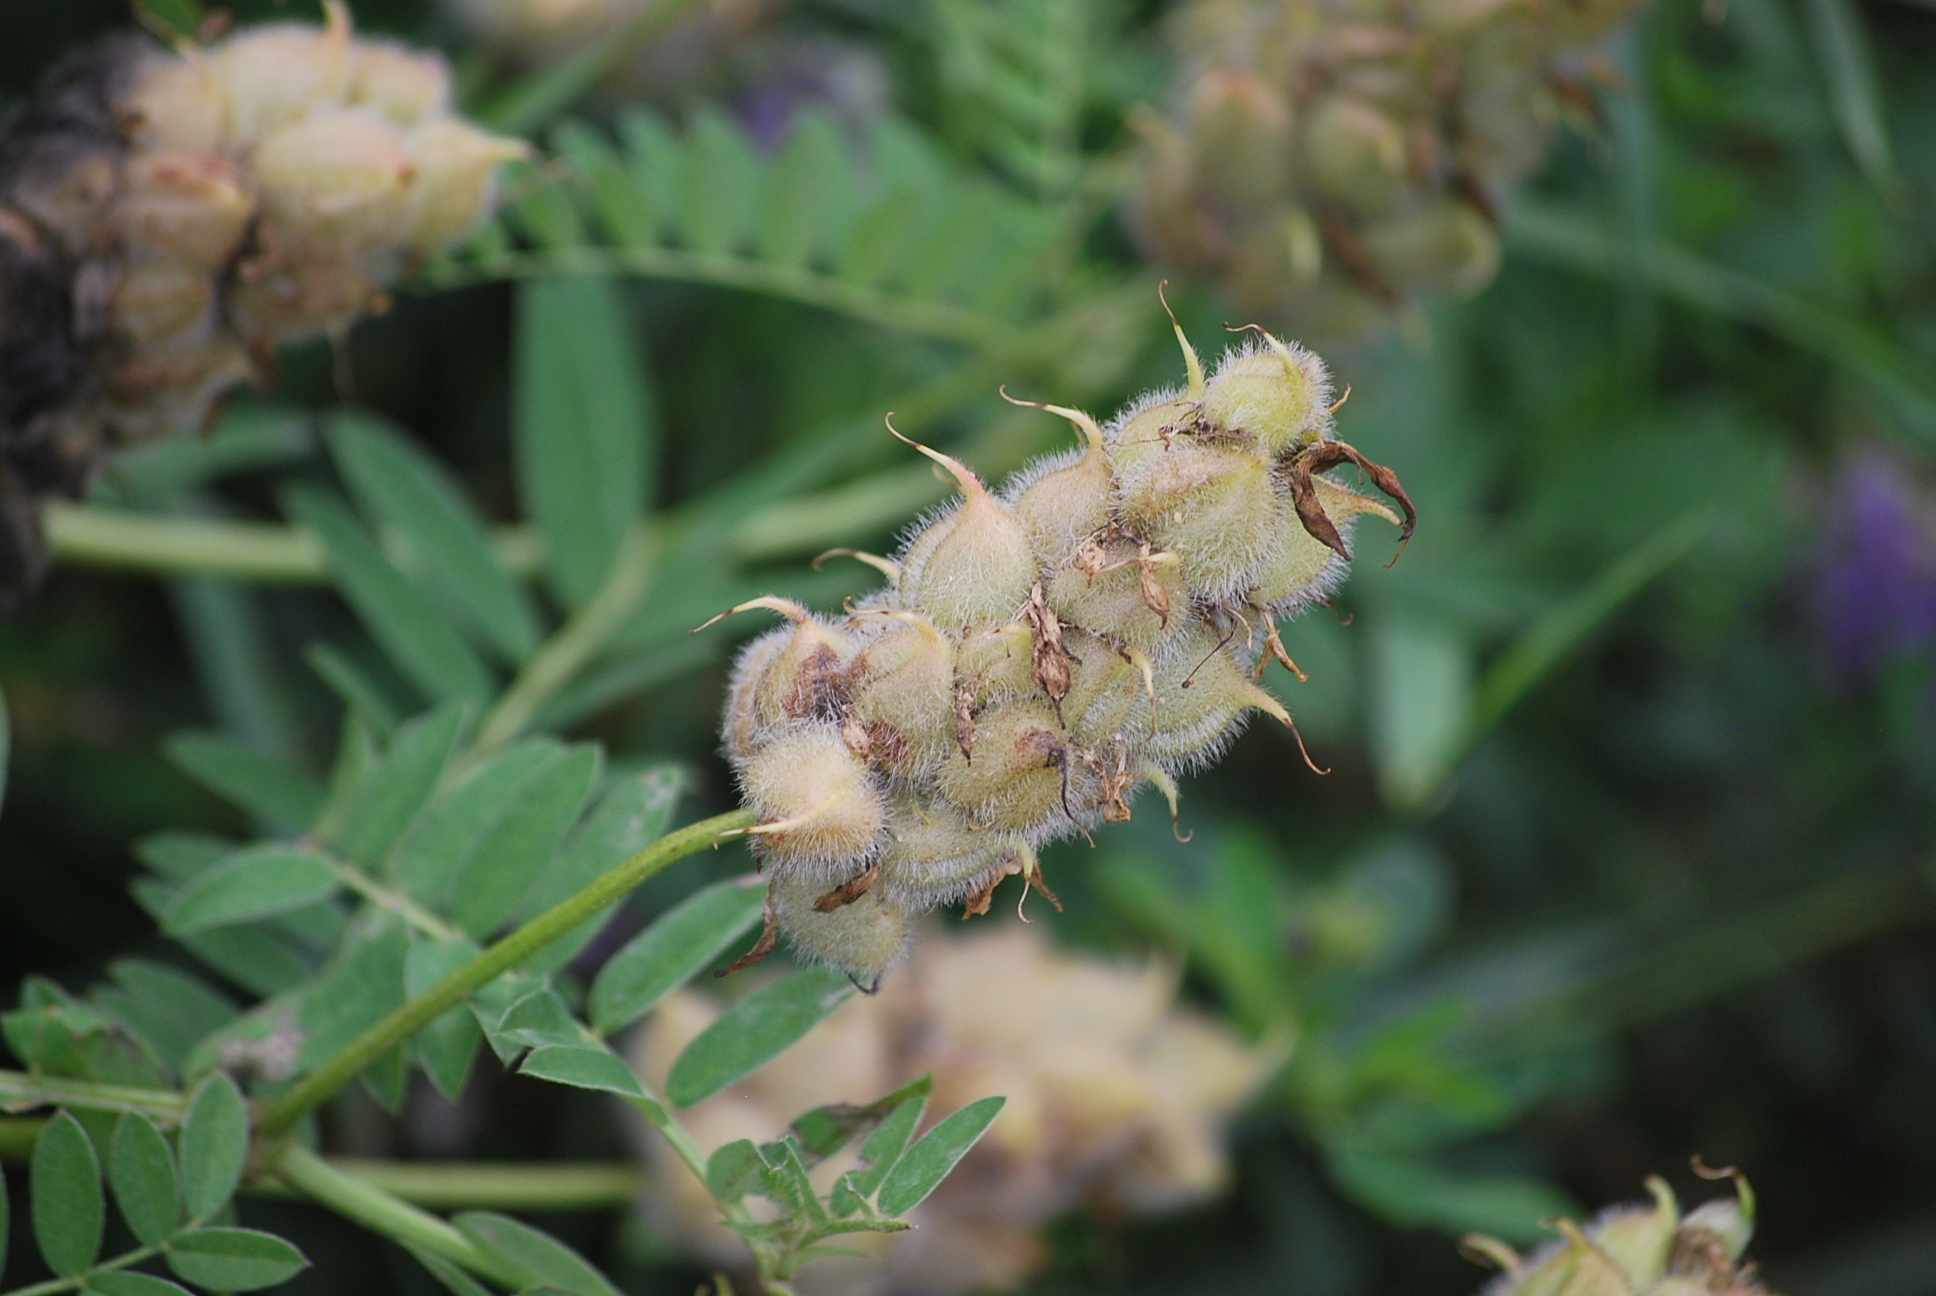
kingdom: Plantae
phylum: Tracheophyta
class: Magnoliopsida
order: Fabales
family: Fabaceae
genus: Astragalus
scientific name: Astragalus cicer
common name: Chick-pea milk-vetch
